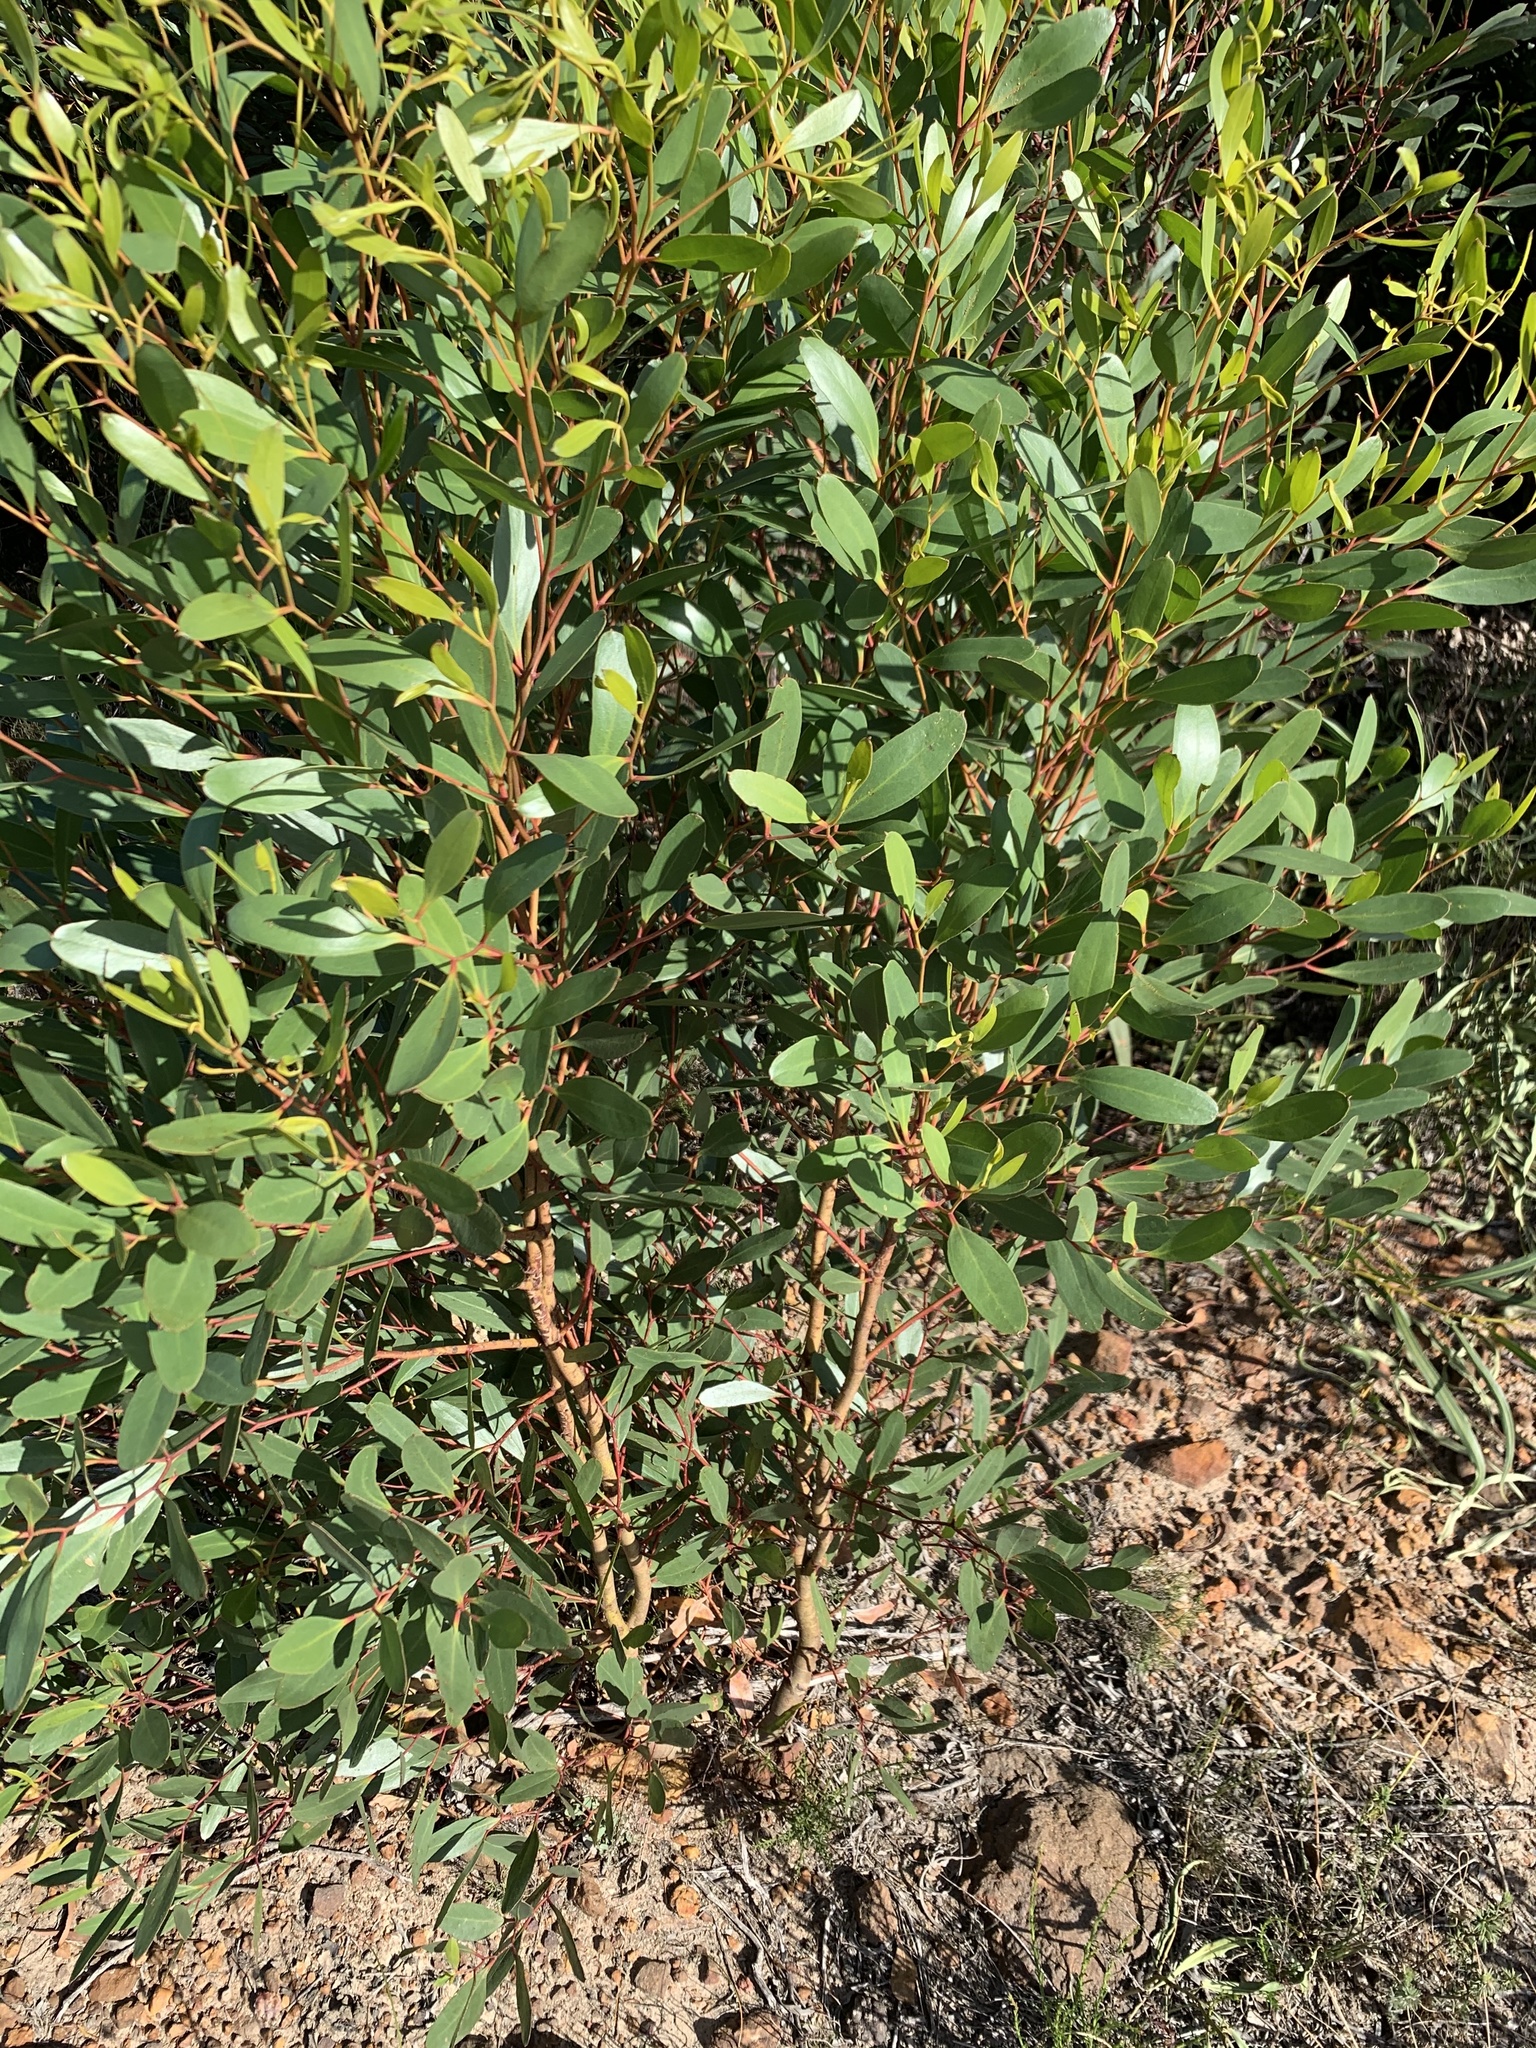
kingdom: Plantae
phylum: Tracheophyta
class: Magnoliopsida
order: Myrtales
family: Myrtaceae
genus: Eucalyptus
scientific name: Eucalyptus conferruminata
